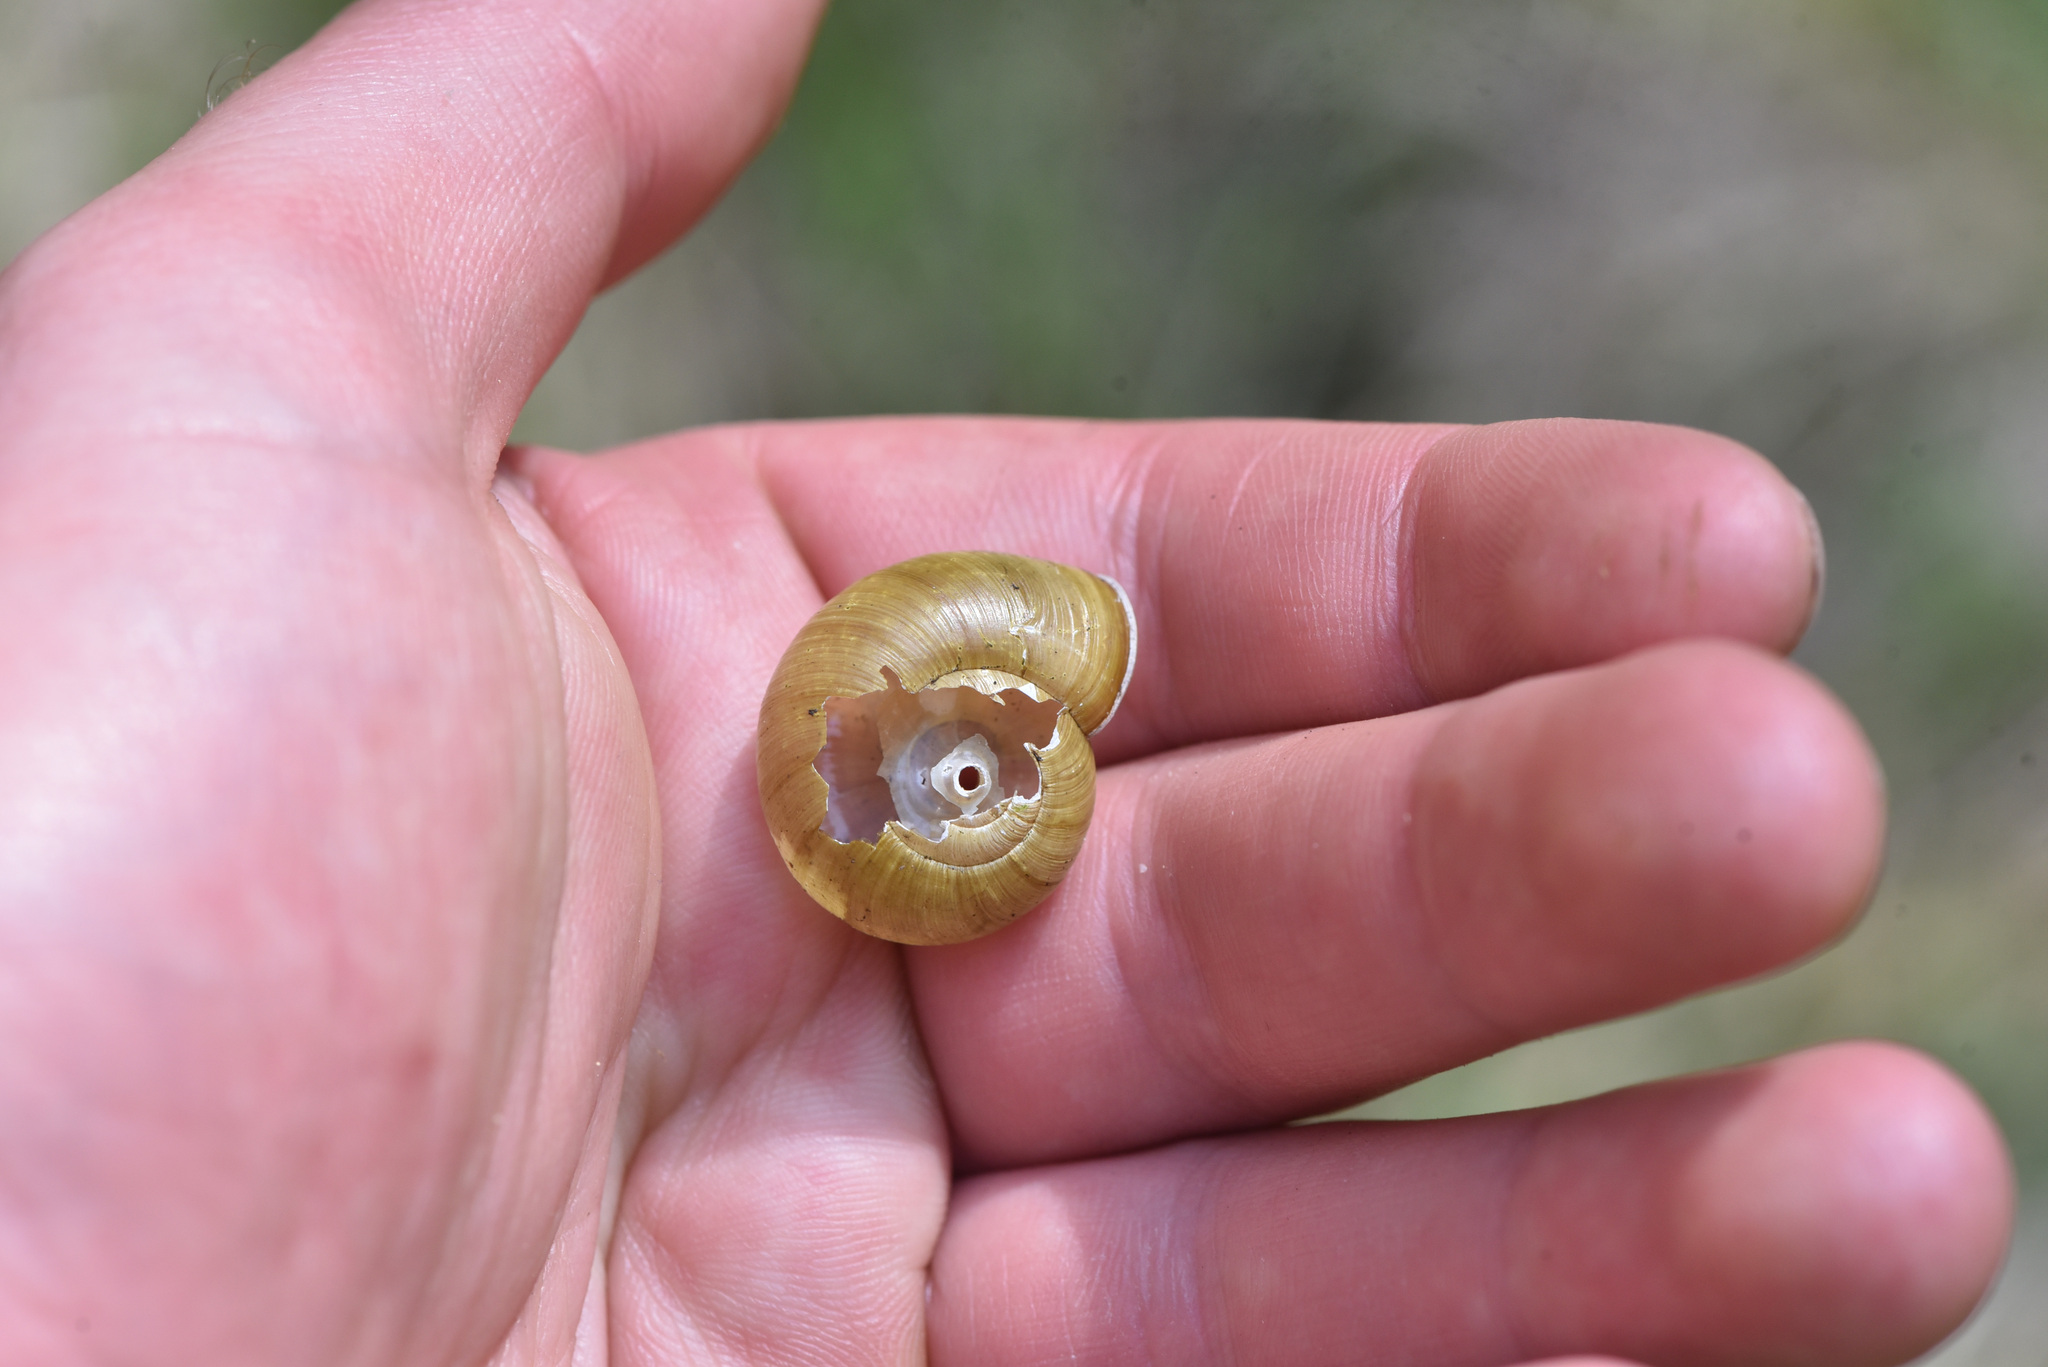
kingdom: Animalia
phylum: Mollusca
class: Gastropoda
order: Stylommatophora
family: Haplotrematidae
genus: Haplotrema
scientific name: Haplotrema vancouverense
